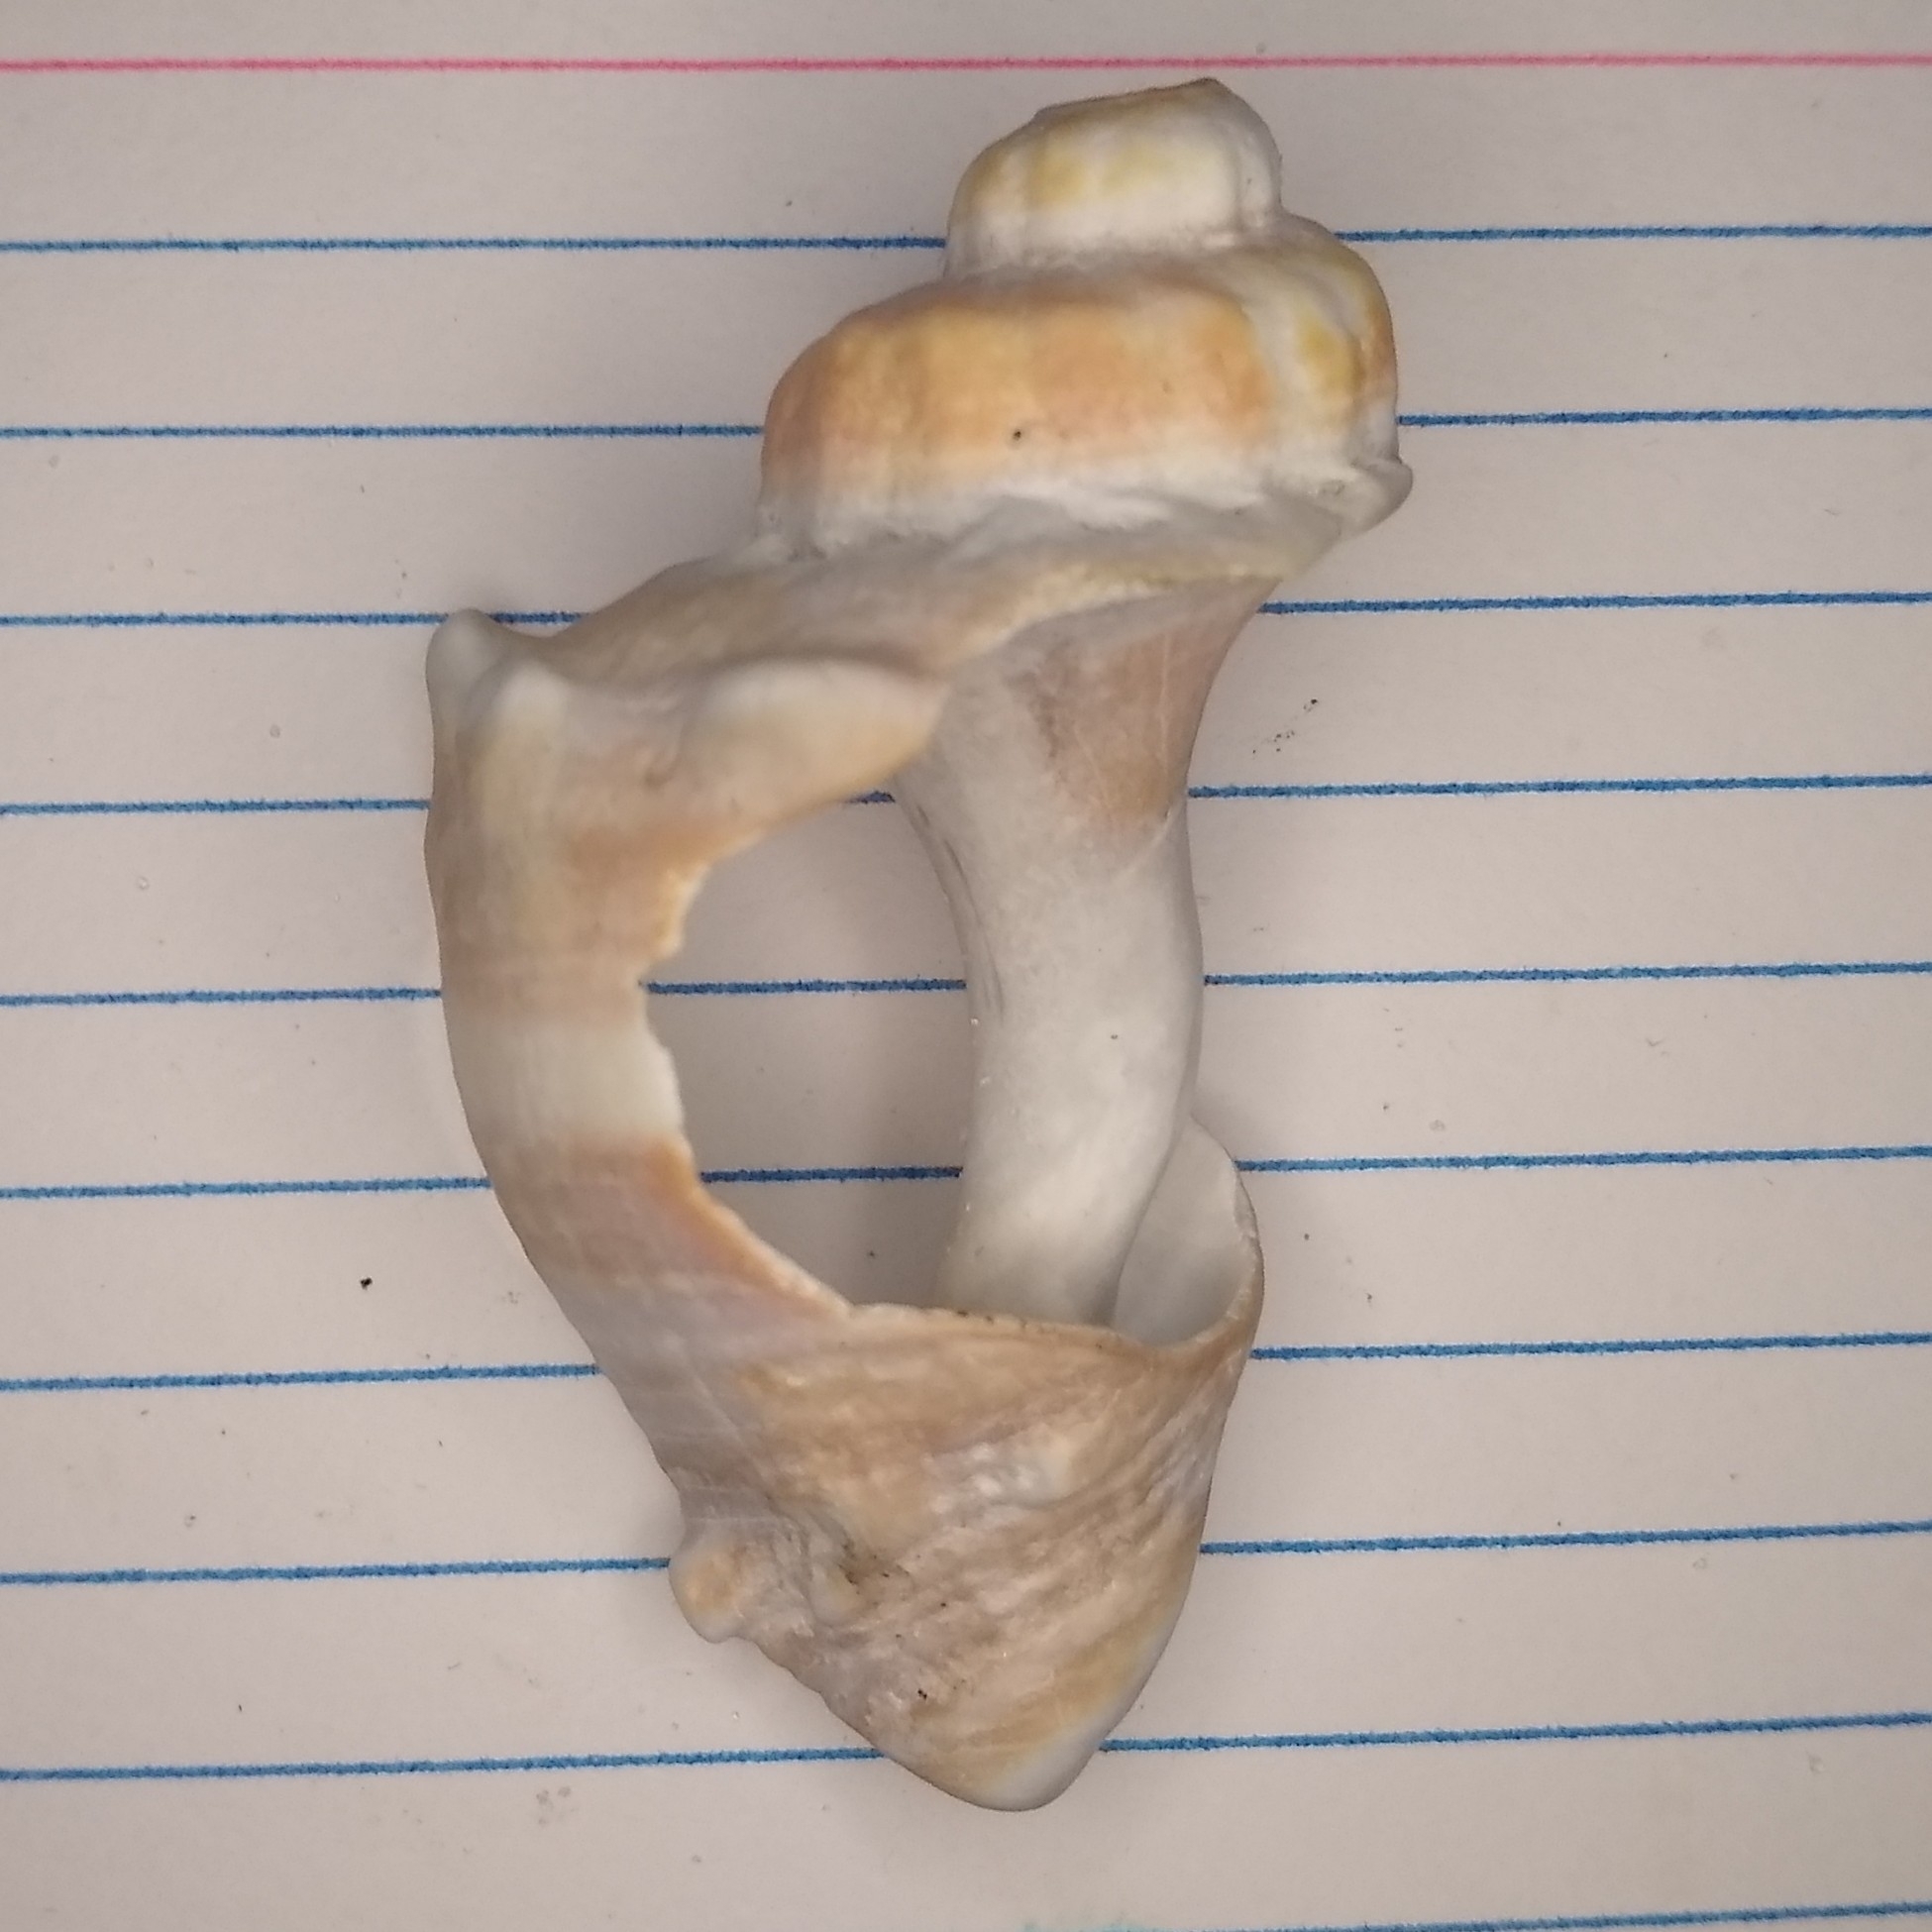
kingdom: Animalia
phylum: Mollusca
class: Gastropoda
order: Neogastropoda
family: Melongenidae
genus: Melongena
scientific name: Melongena corona
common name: American crown conch
